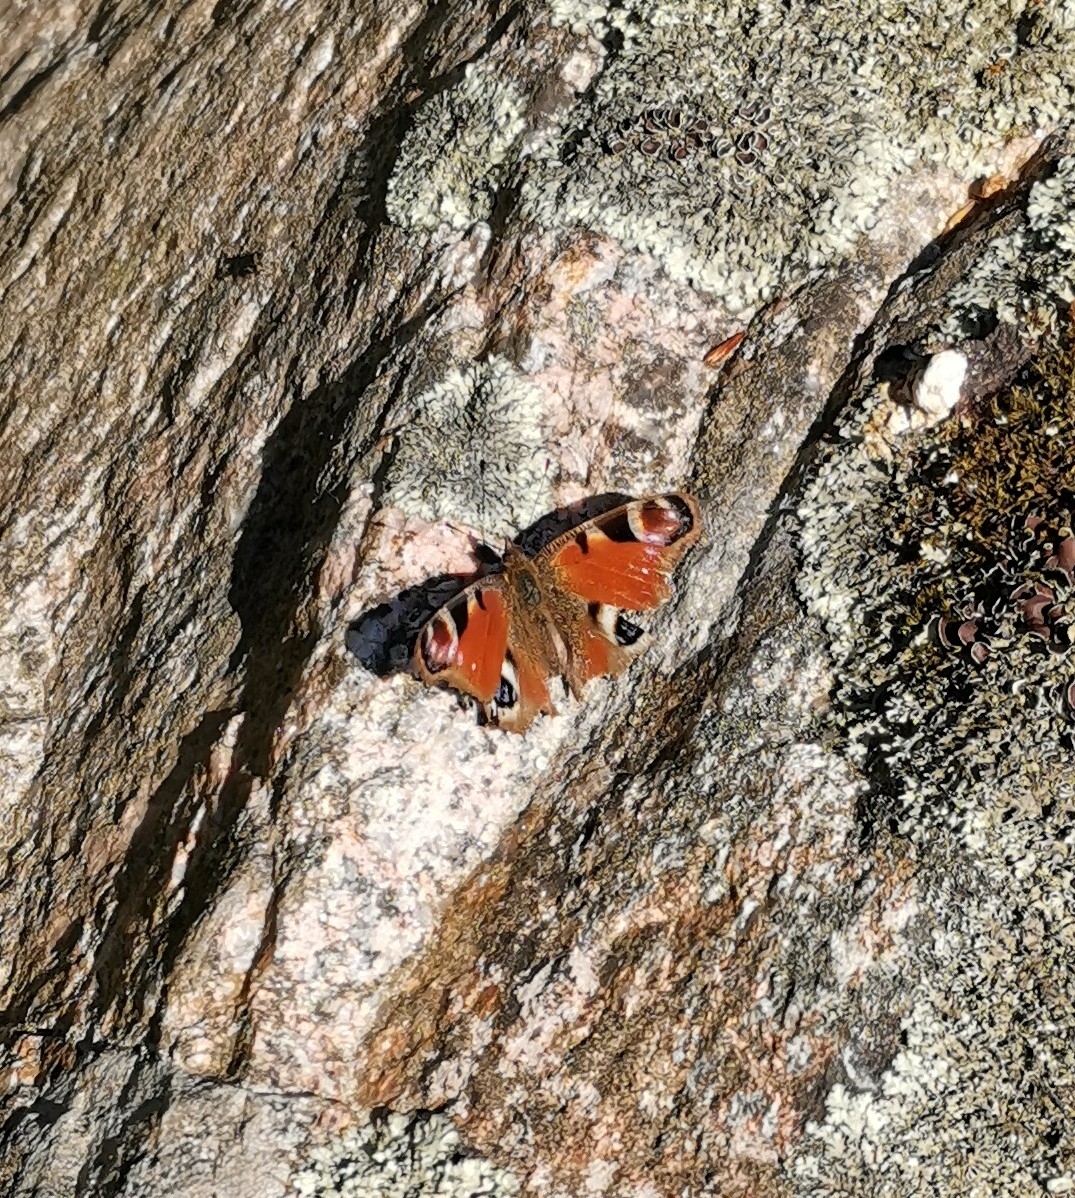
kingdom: Animalia
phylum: Arthropoda
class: Insecta
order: Lepidoptera
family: Nymphalidae
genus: Aglais
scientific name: Aglais io
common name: Peacock
